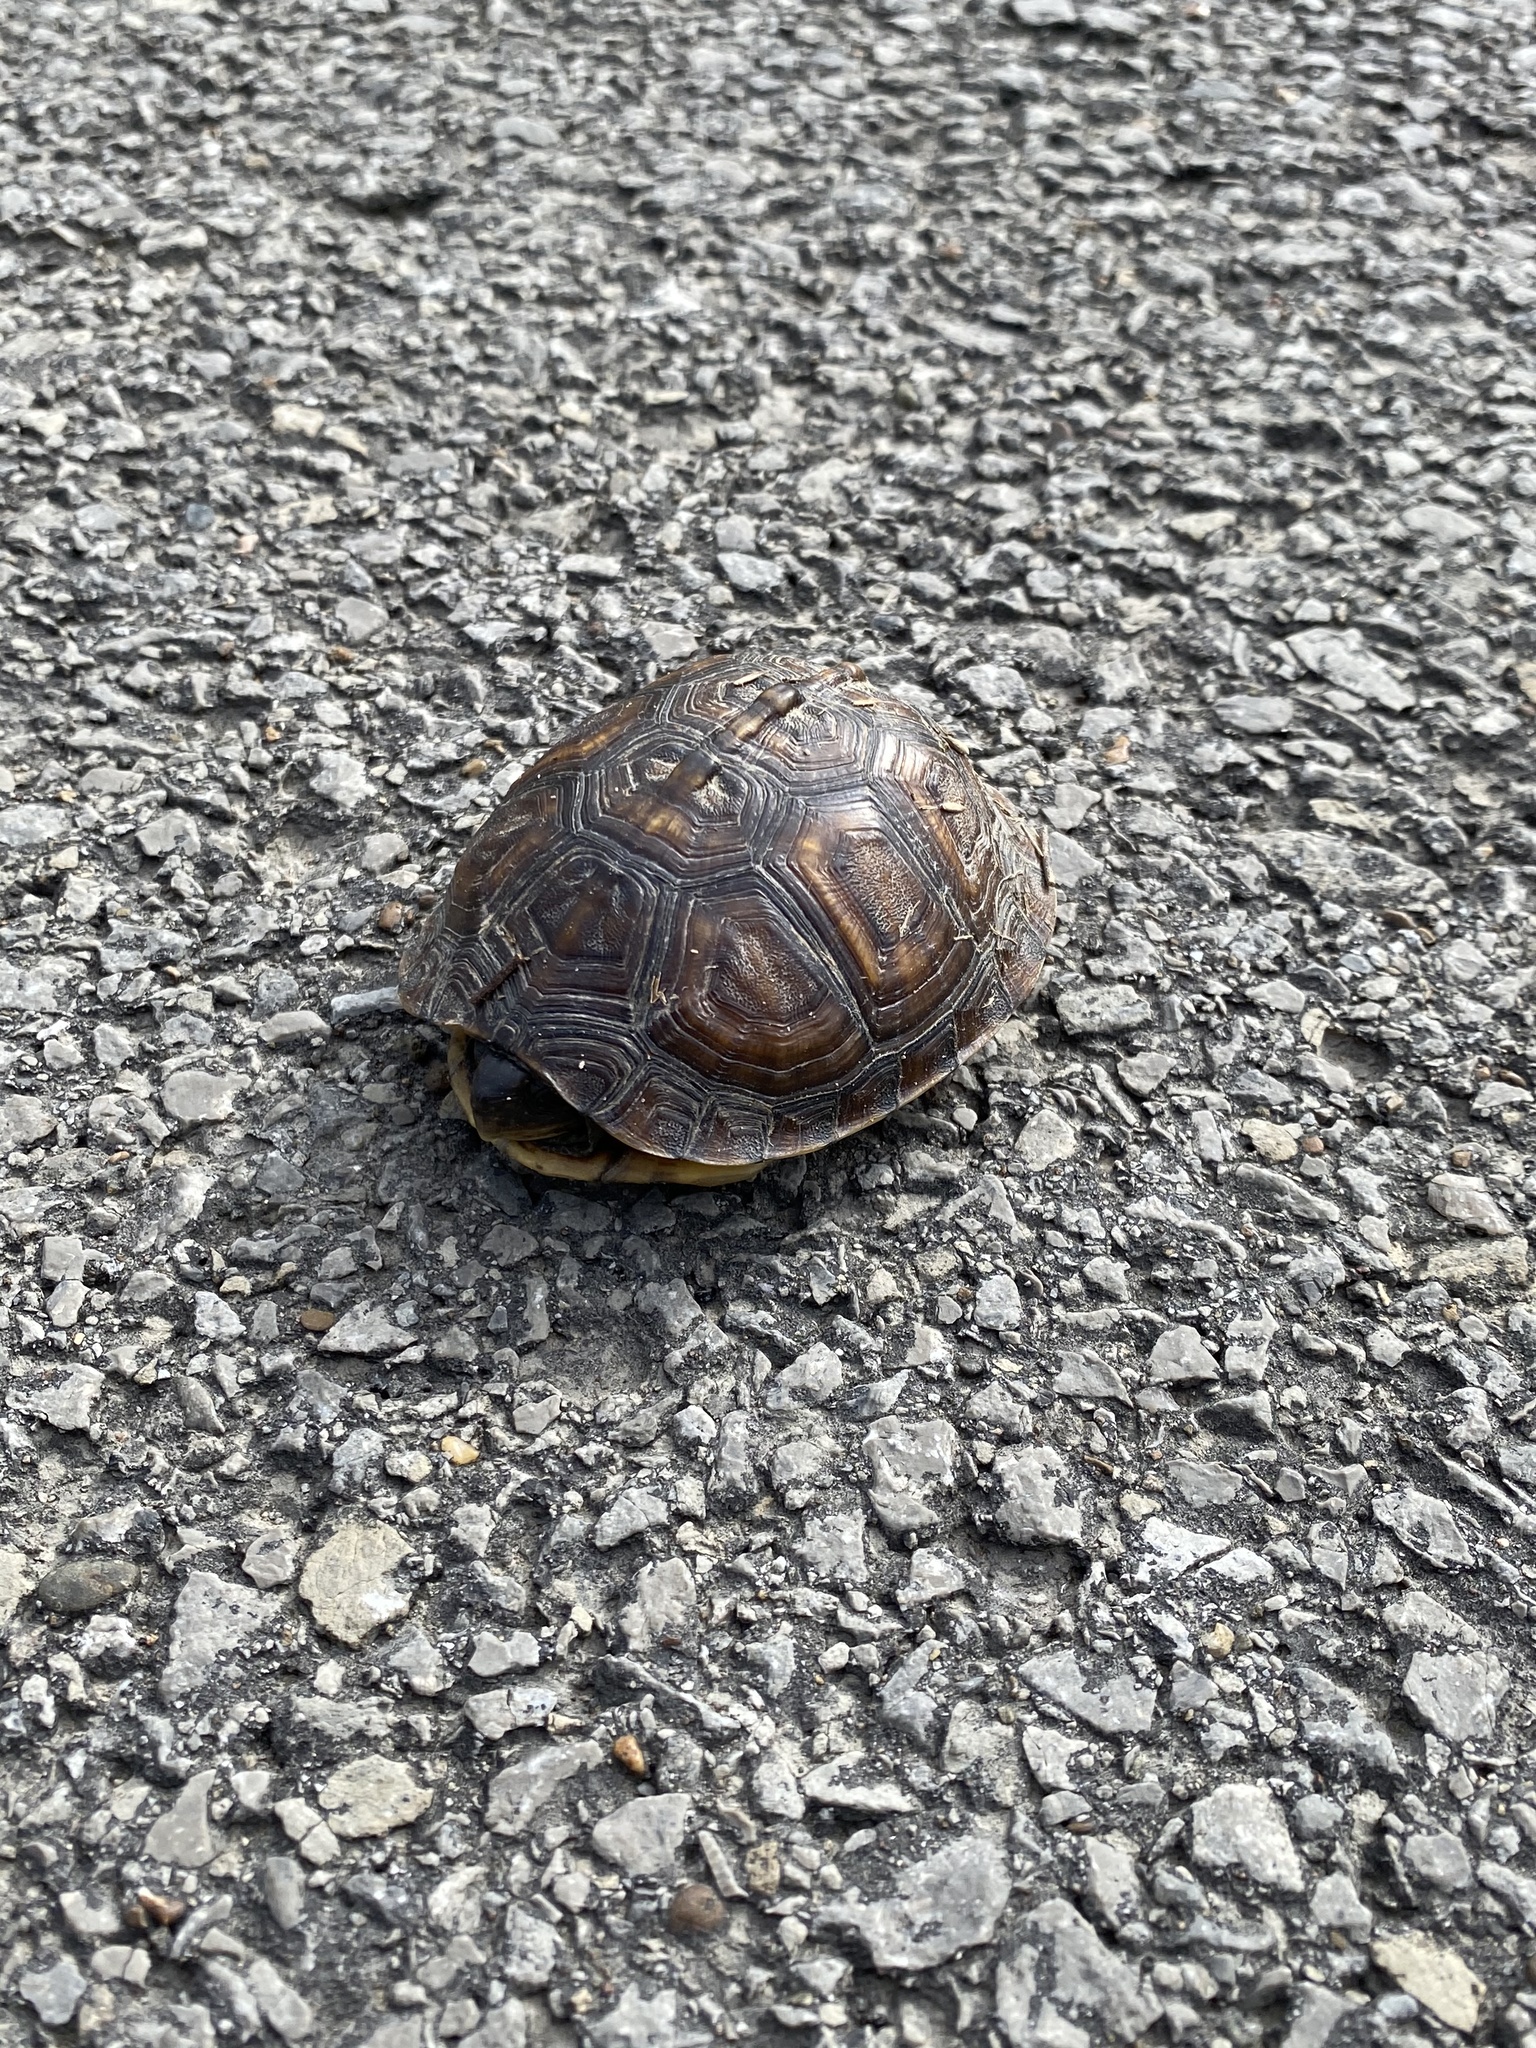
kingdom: Animalia
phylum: Chordata
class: Testudines
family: Emydidae
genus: Terrapene
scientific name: Terrapene carolina
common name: Common box turtle
